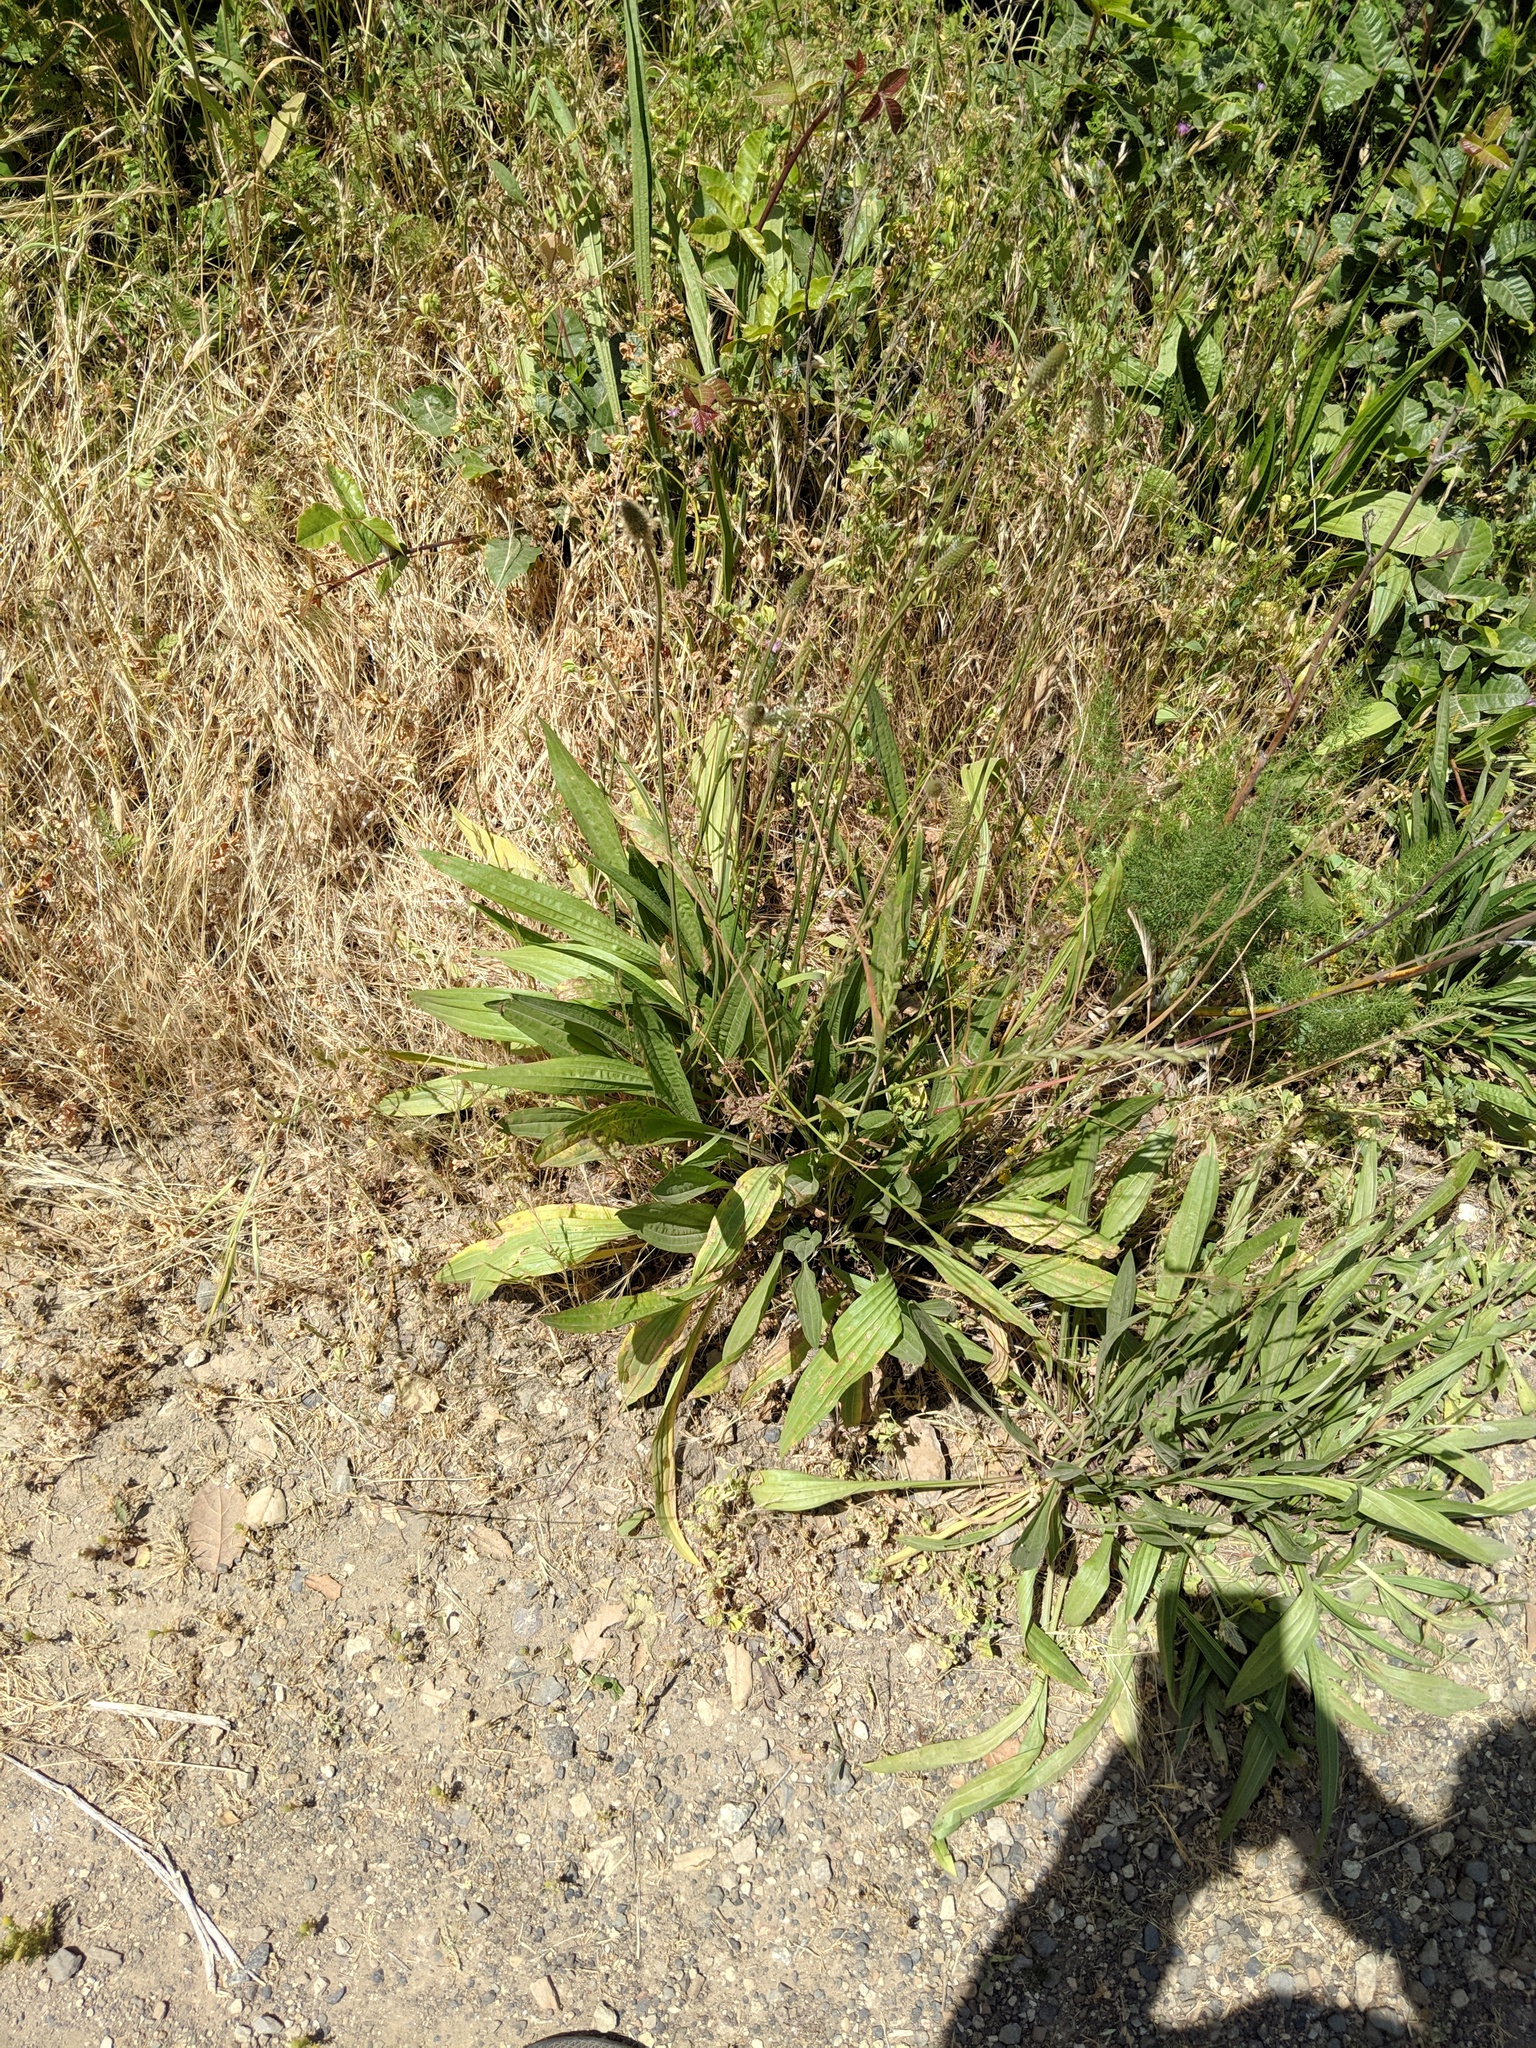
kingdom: Plantae
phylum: Tracheophyta
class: Magnoliopsida
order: Lamiales
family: Plantaginaceae
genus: Plantago
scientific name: Plantago lanceolata
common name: Ribwort plantain
